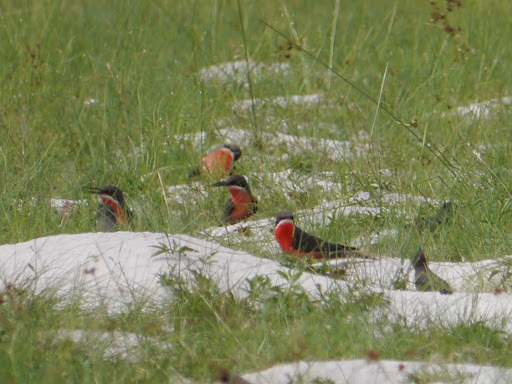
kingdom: Animalia
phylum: Chordata
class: Aves
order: Coraciiformes
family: Meropidae
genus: Merops
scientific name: Merops malimbicus
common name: Rosy bee-eater
